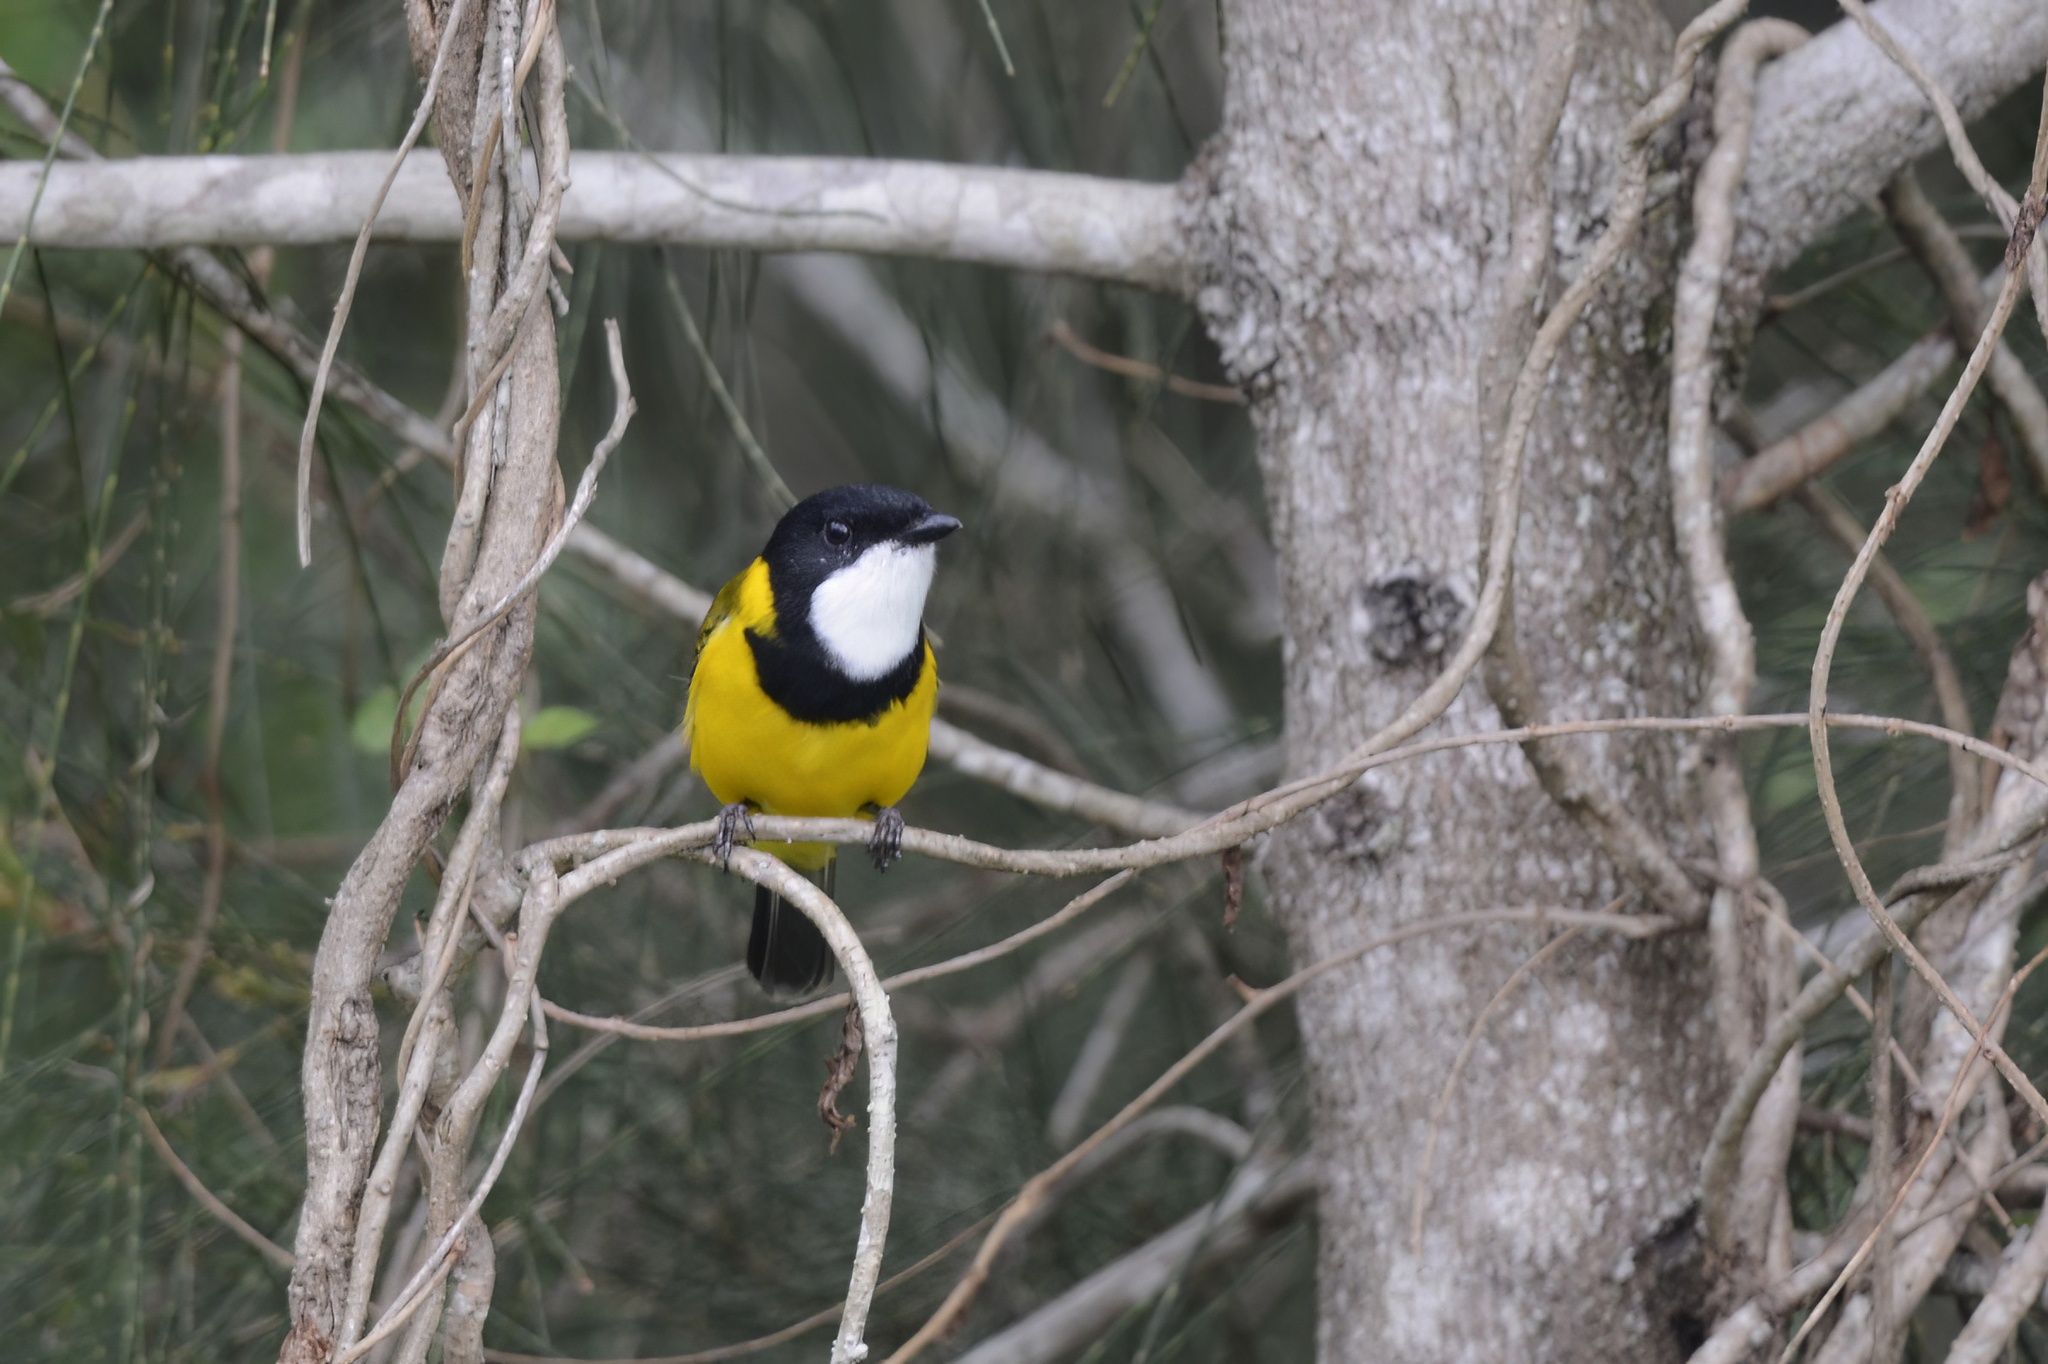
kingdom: Animalia
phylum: Chordata
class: Aves
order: Passeriformes
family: Pachycephalidae
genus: Pachycephala
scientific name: Pachycephala pectoralis
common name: Australian golden whistler
